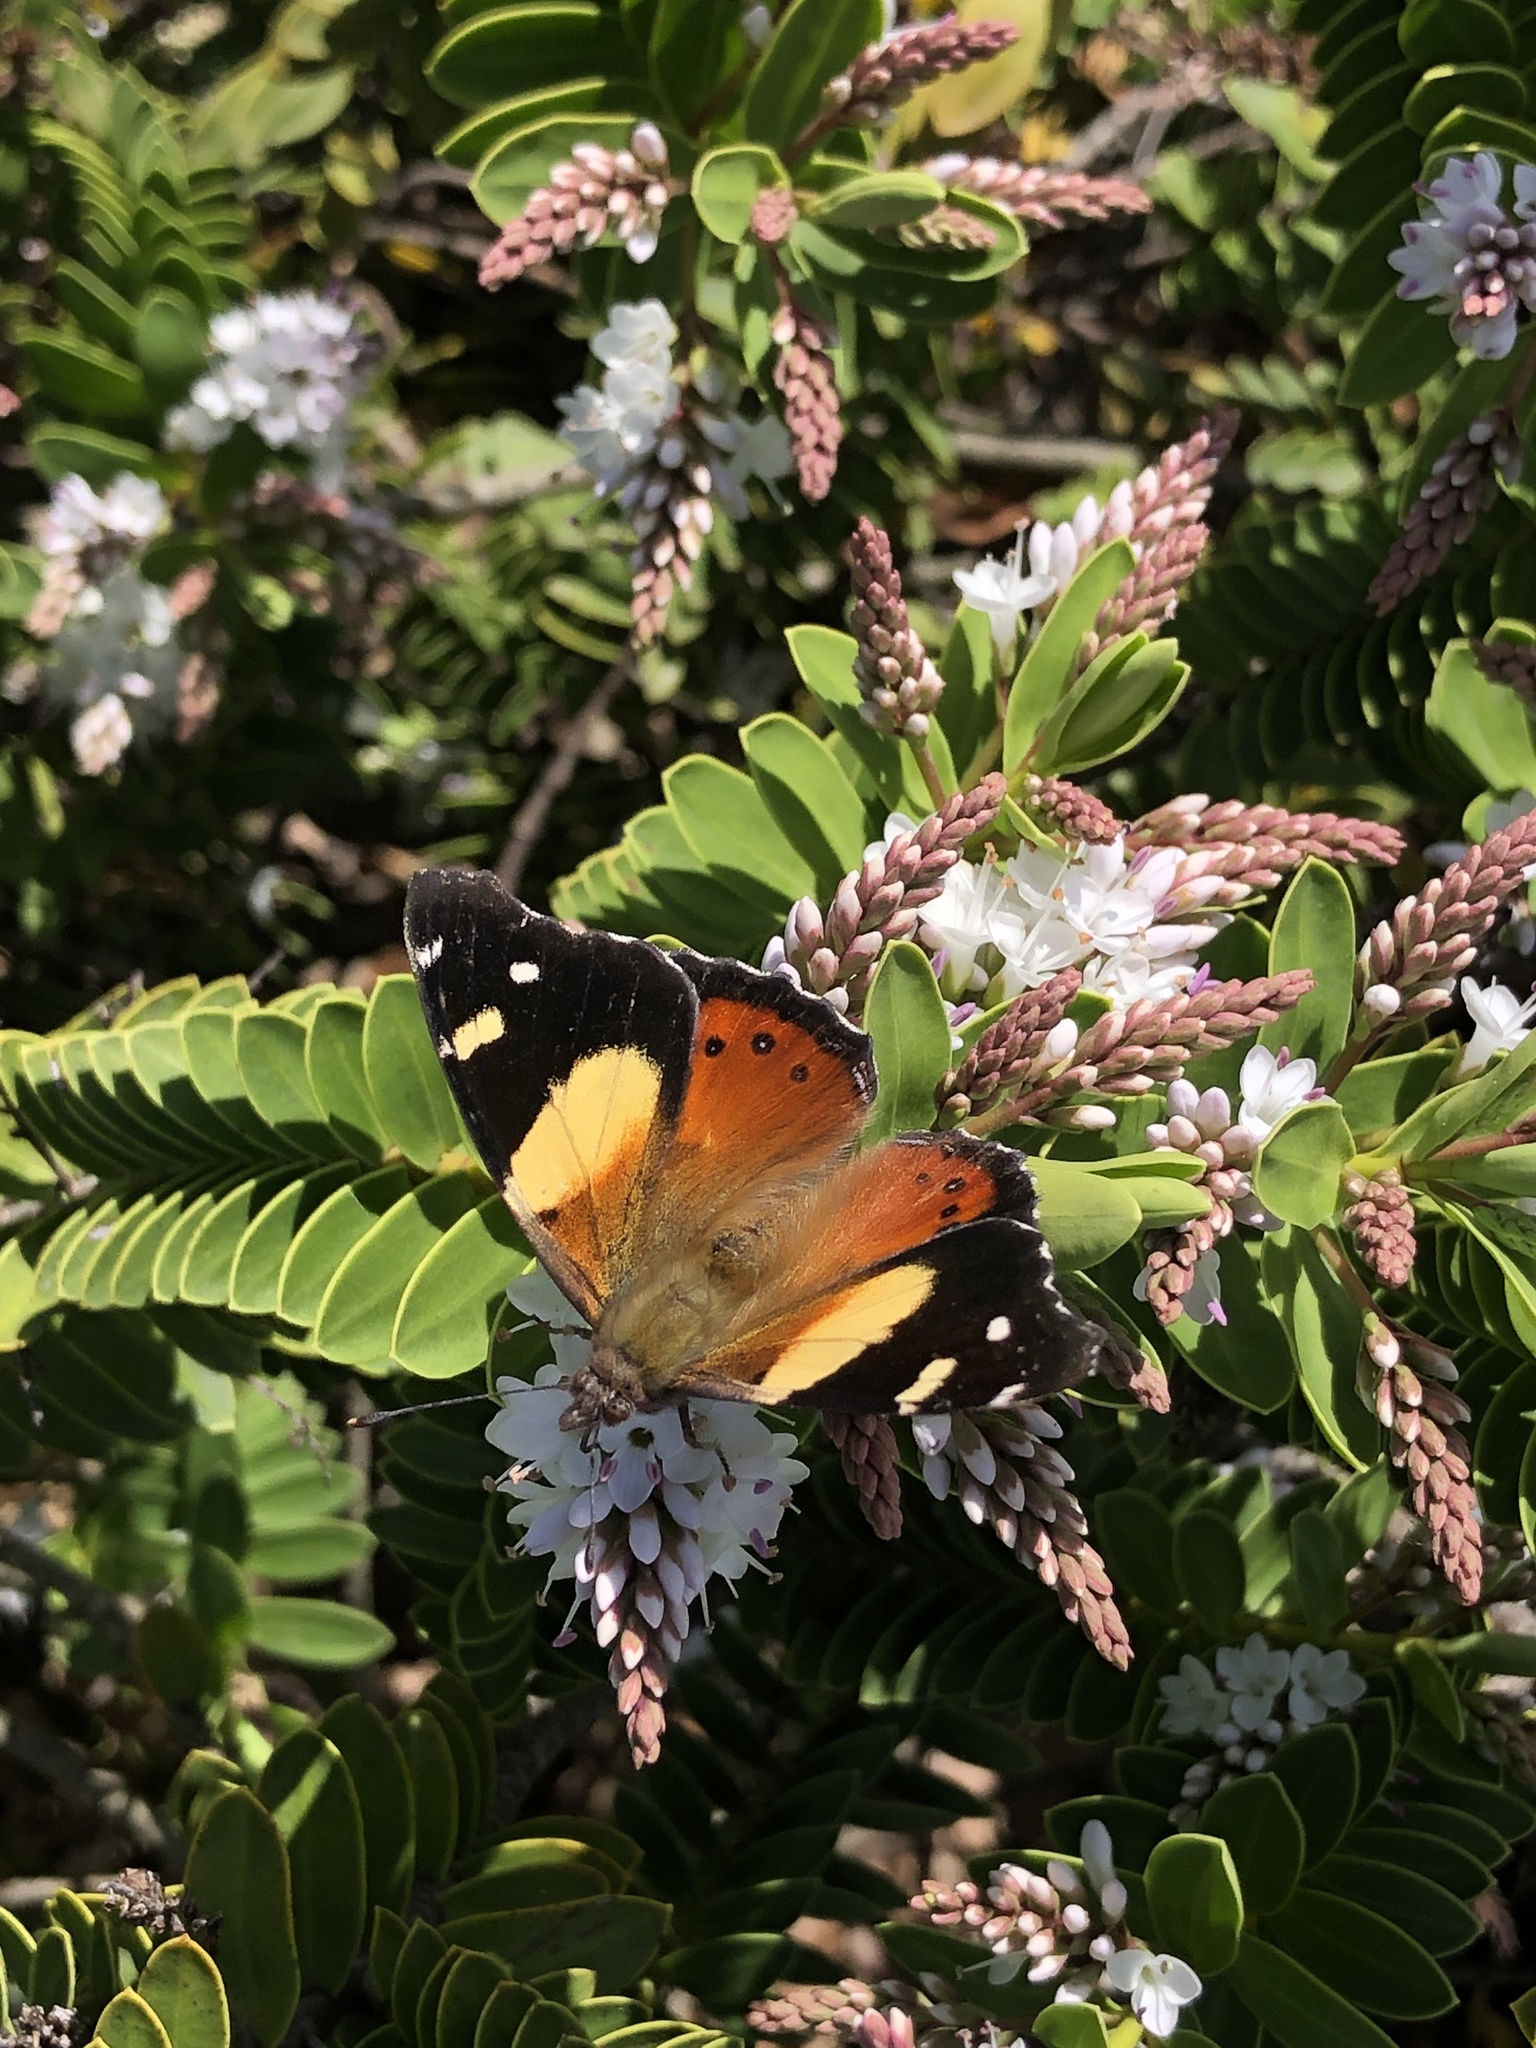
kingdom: Animalia
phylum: Arthropoda
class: Insecta
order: Lepidoptera
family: Nymphalidae
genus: Vanessa
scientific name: Vanessa itea
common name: Yellow admiral
